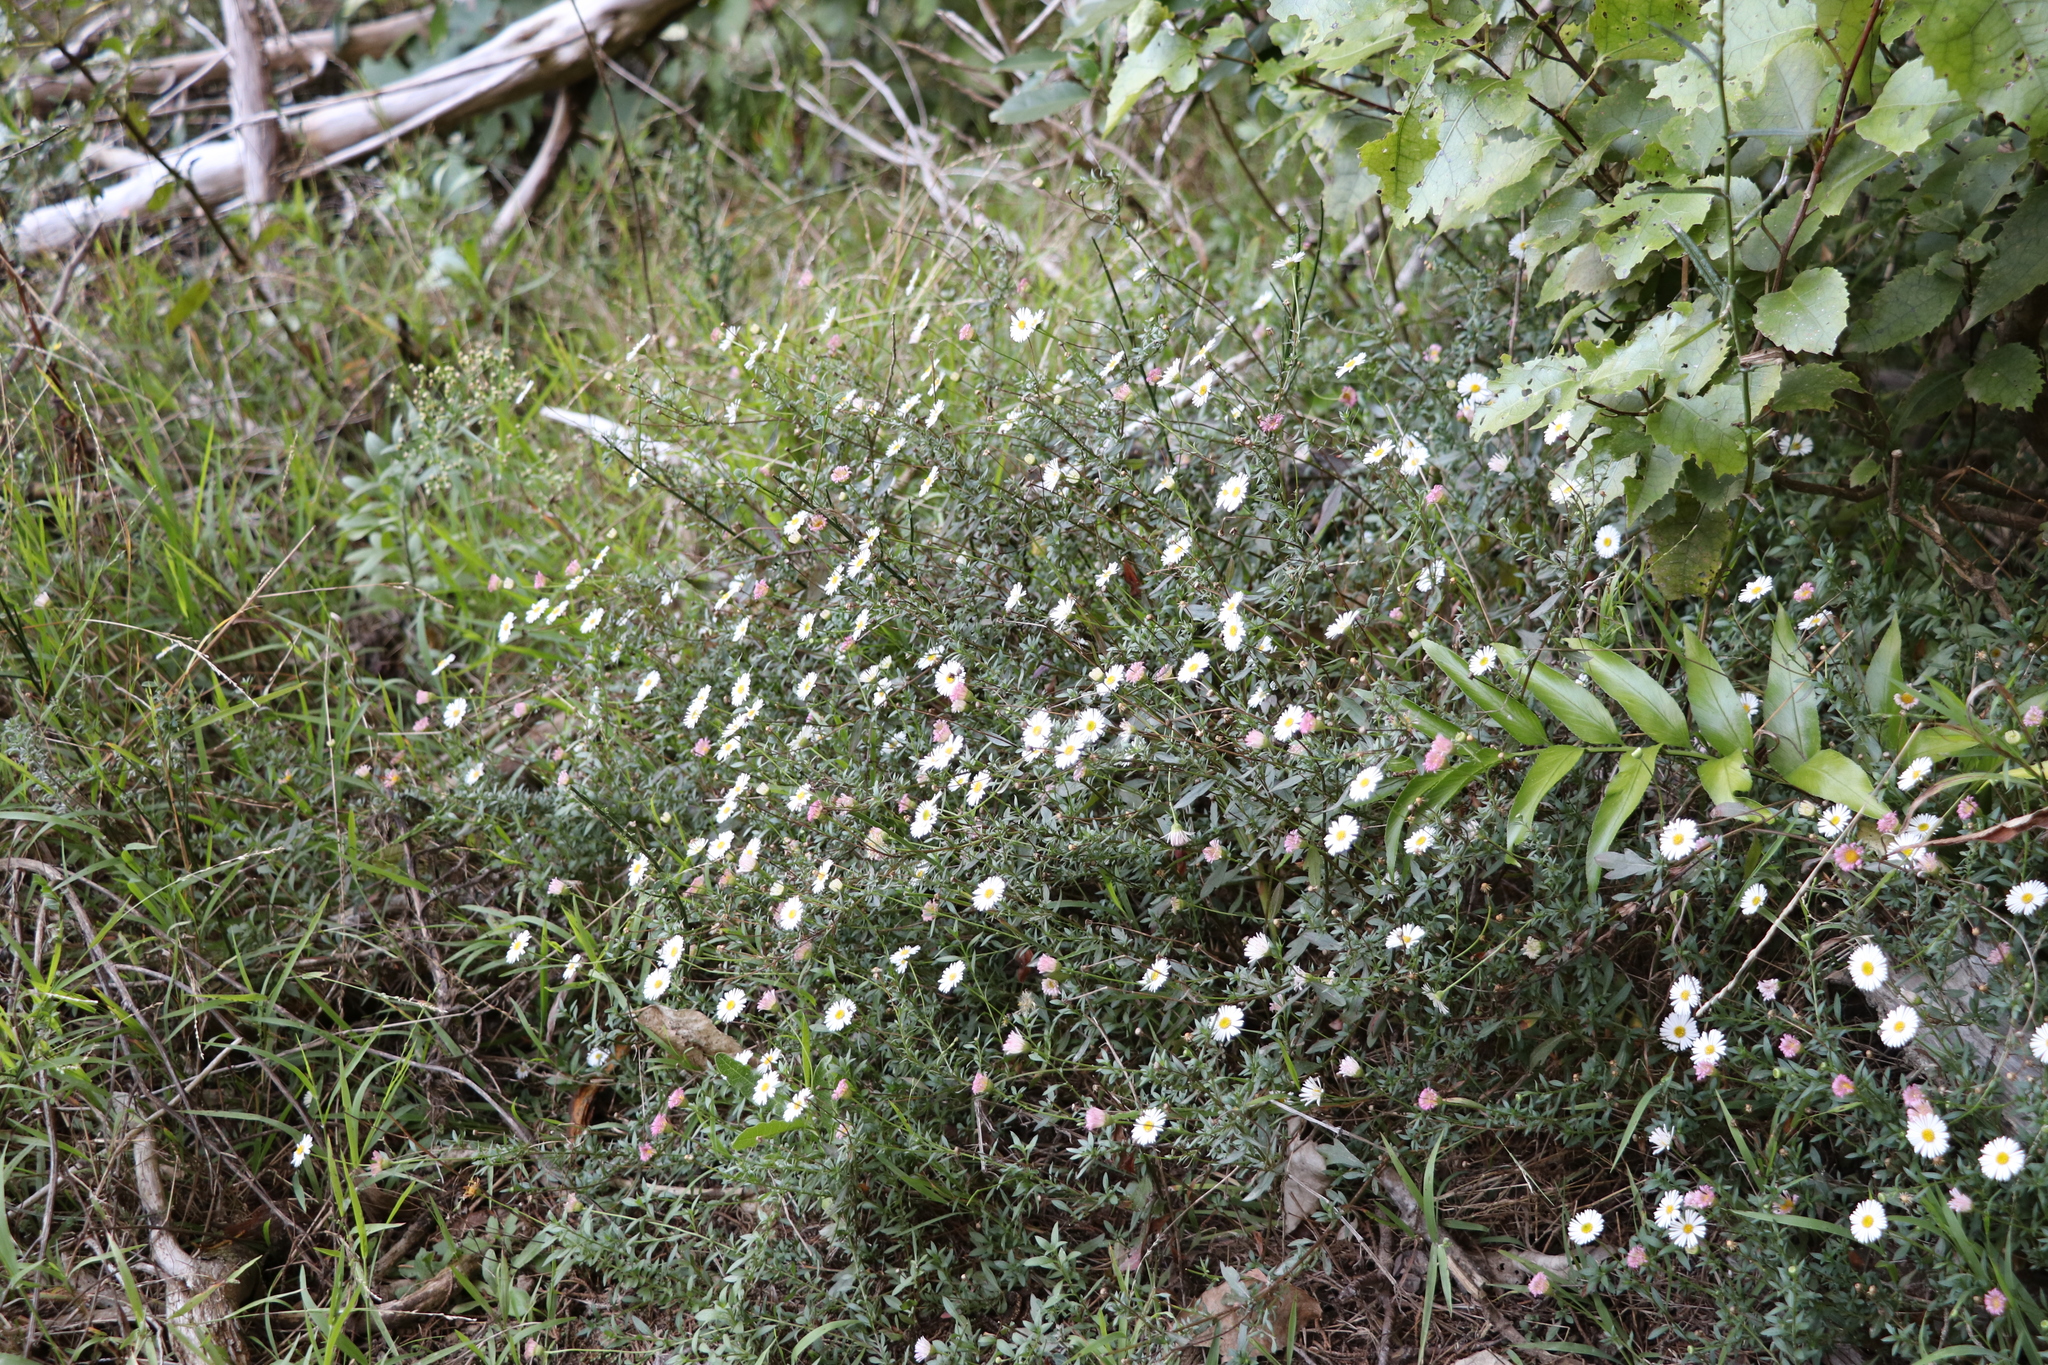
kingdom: Plantae
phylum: Tracheophyta
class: Magnoliopsida
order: Asterales
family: Asteraceae
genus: Erigeron
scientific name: Erigeron karvinskianus
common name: Mexican fleabane
